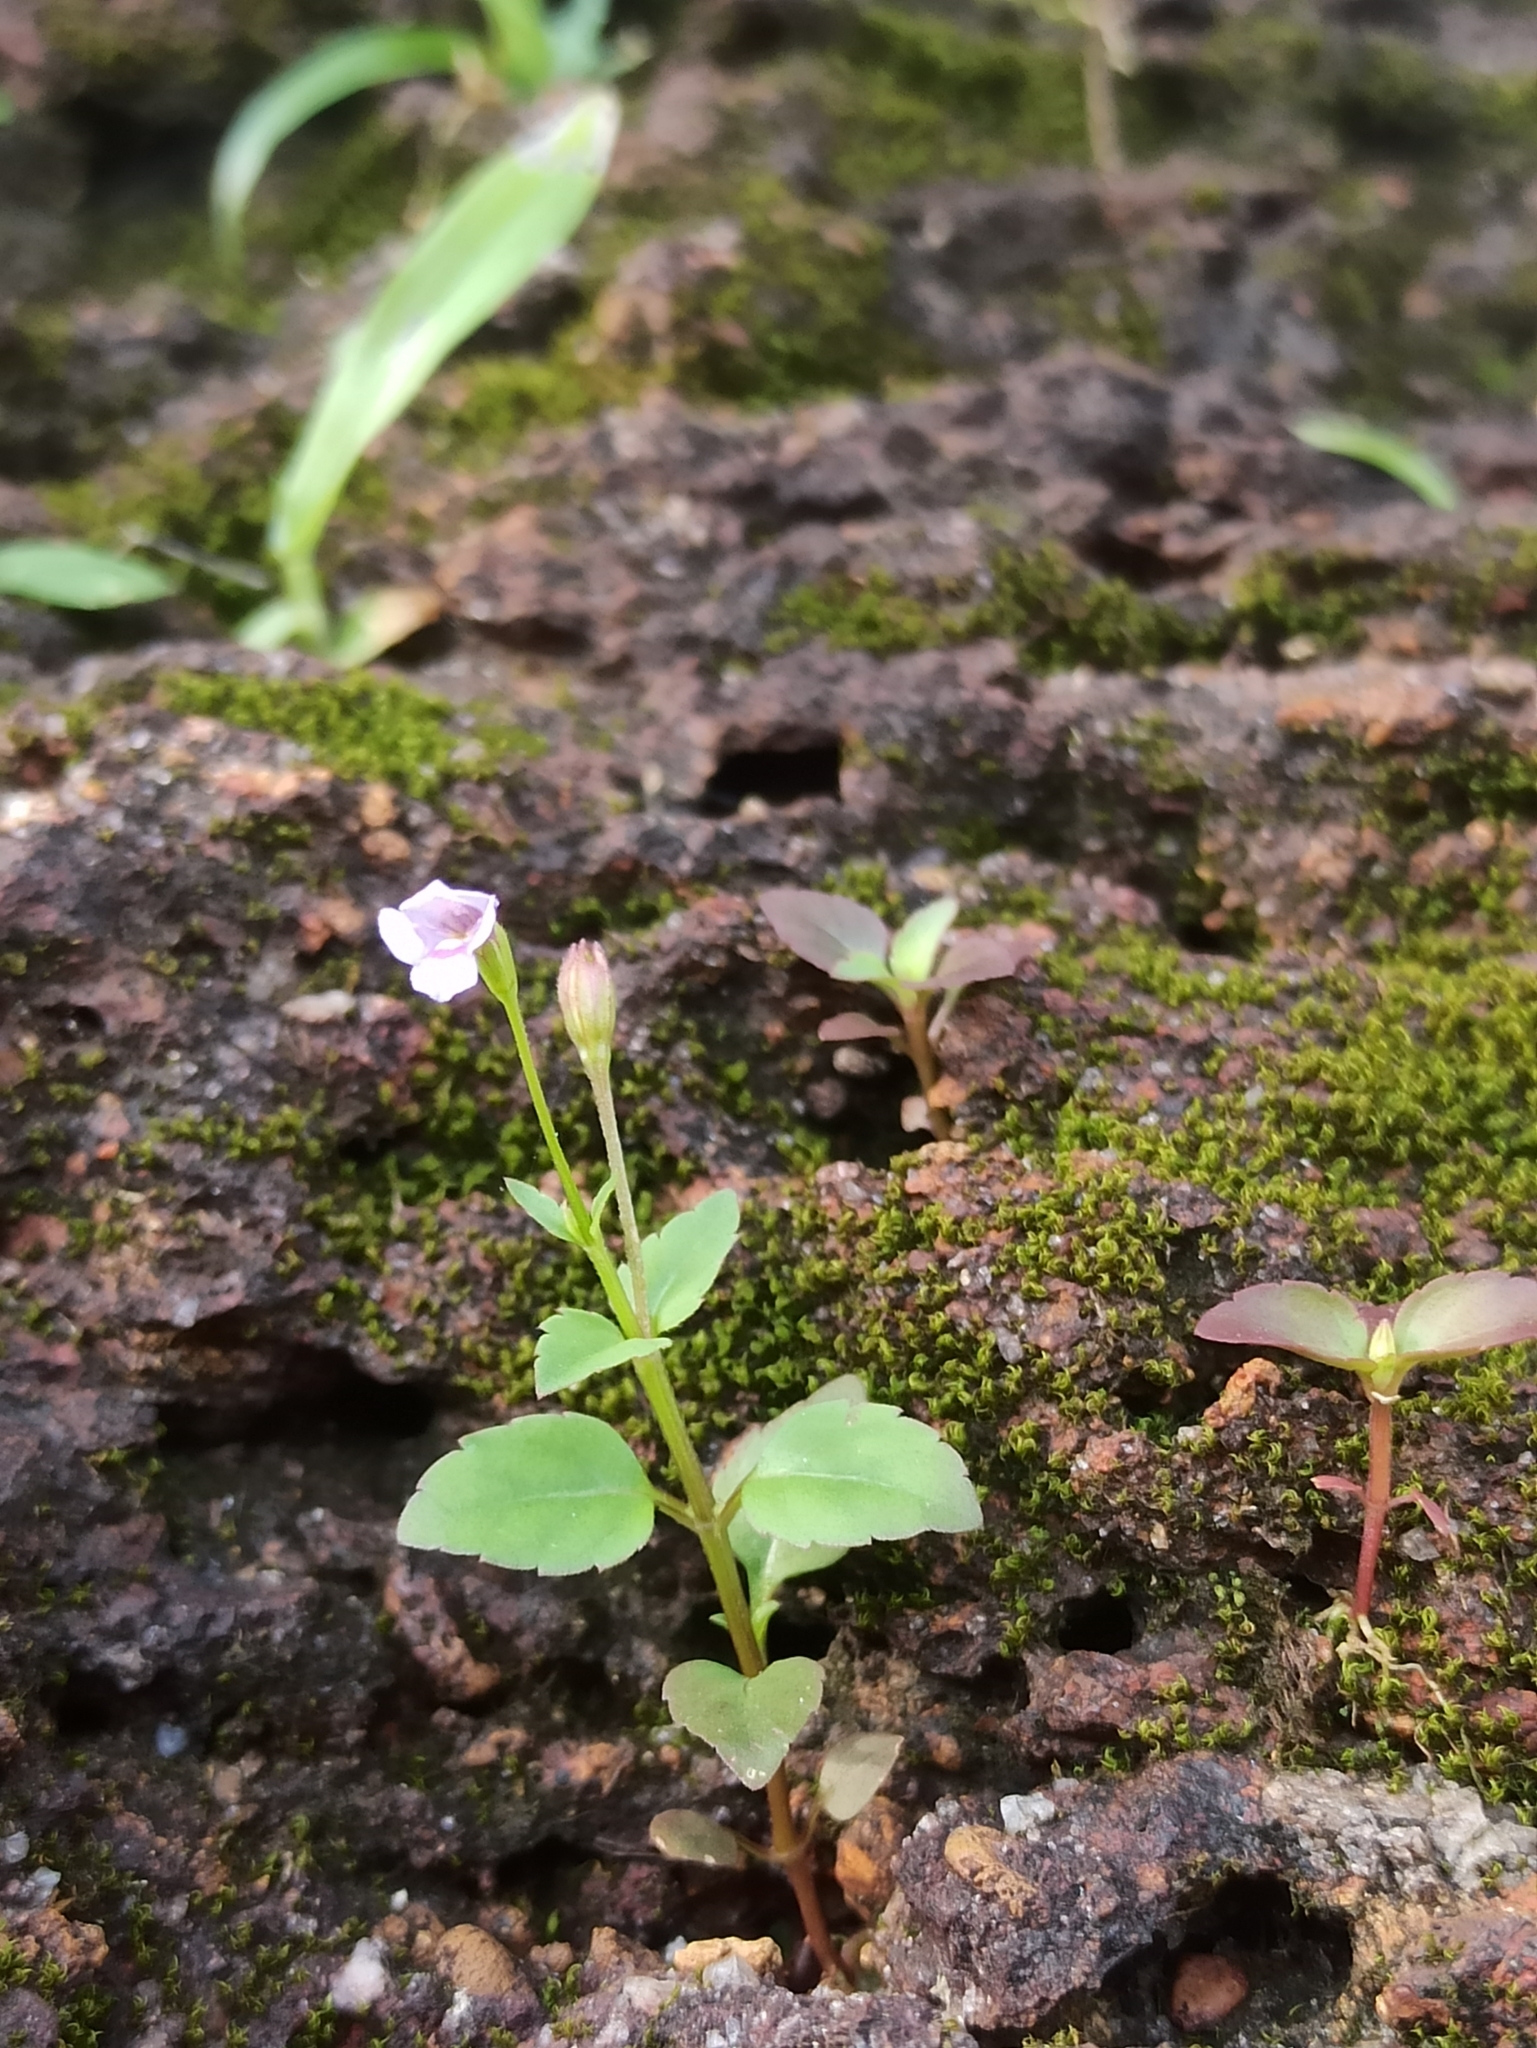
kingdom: Plantae
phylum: Tracheophyta
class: Magnoliopsida
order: Lamiales
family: Linderniaceae
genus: Torenia
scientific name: Torenia crustacea
